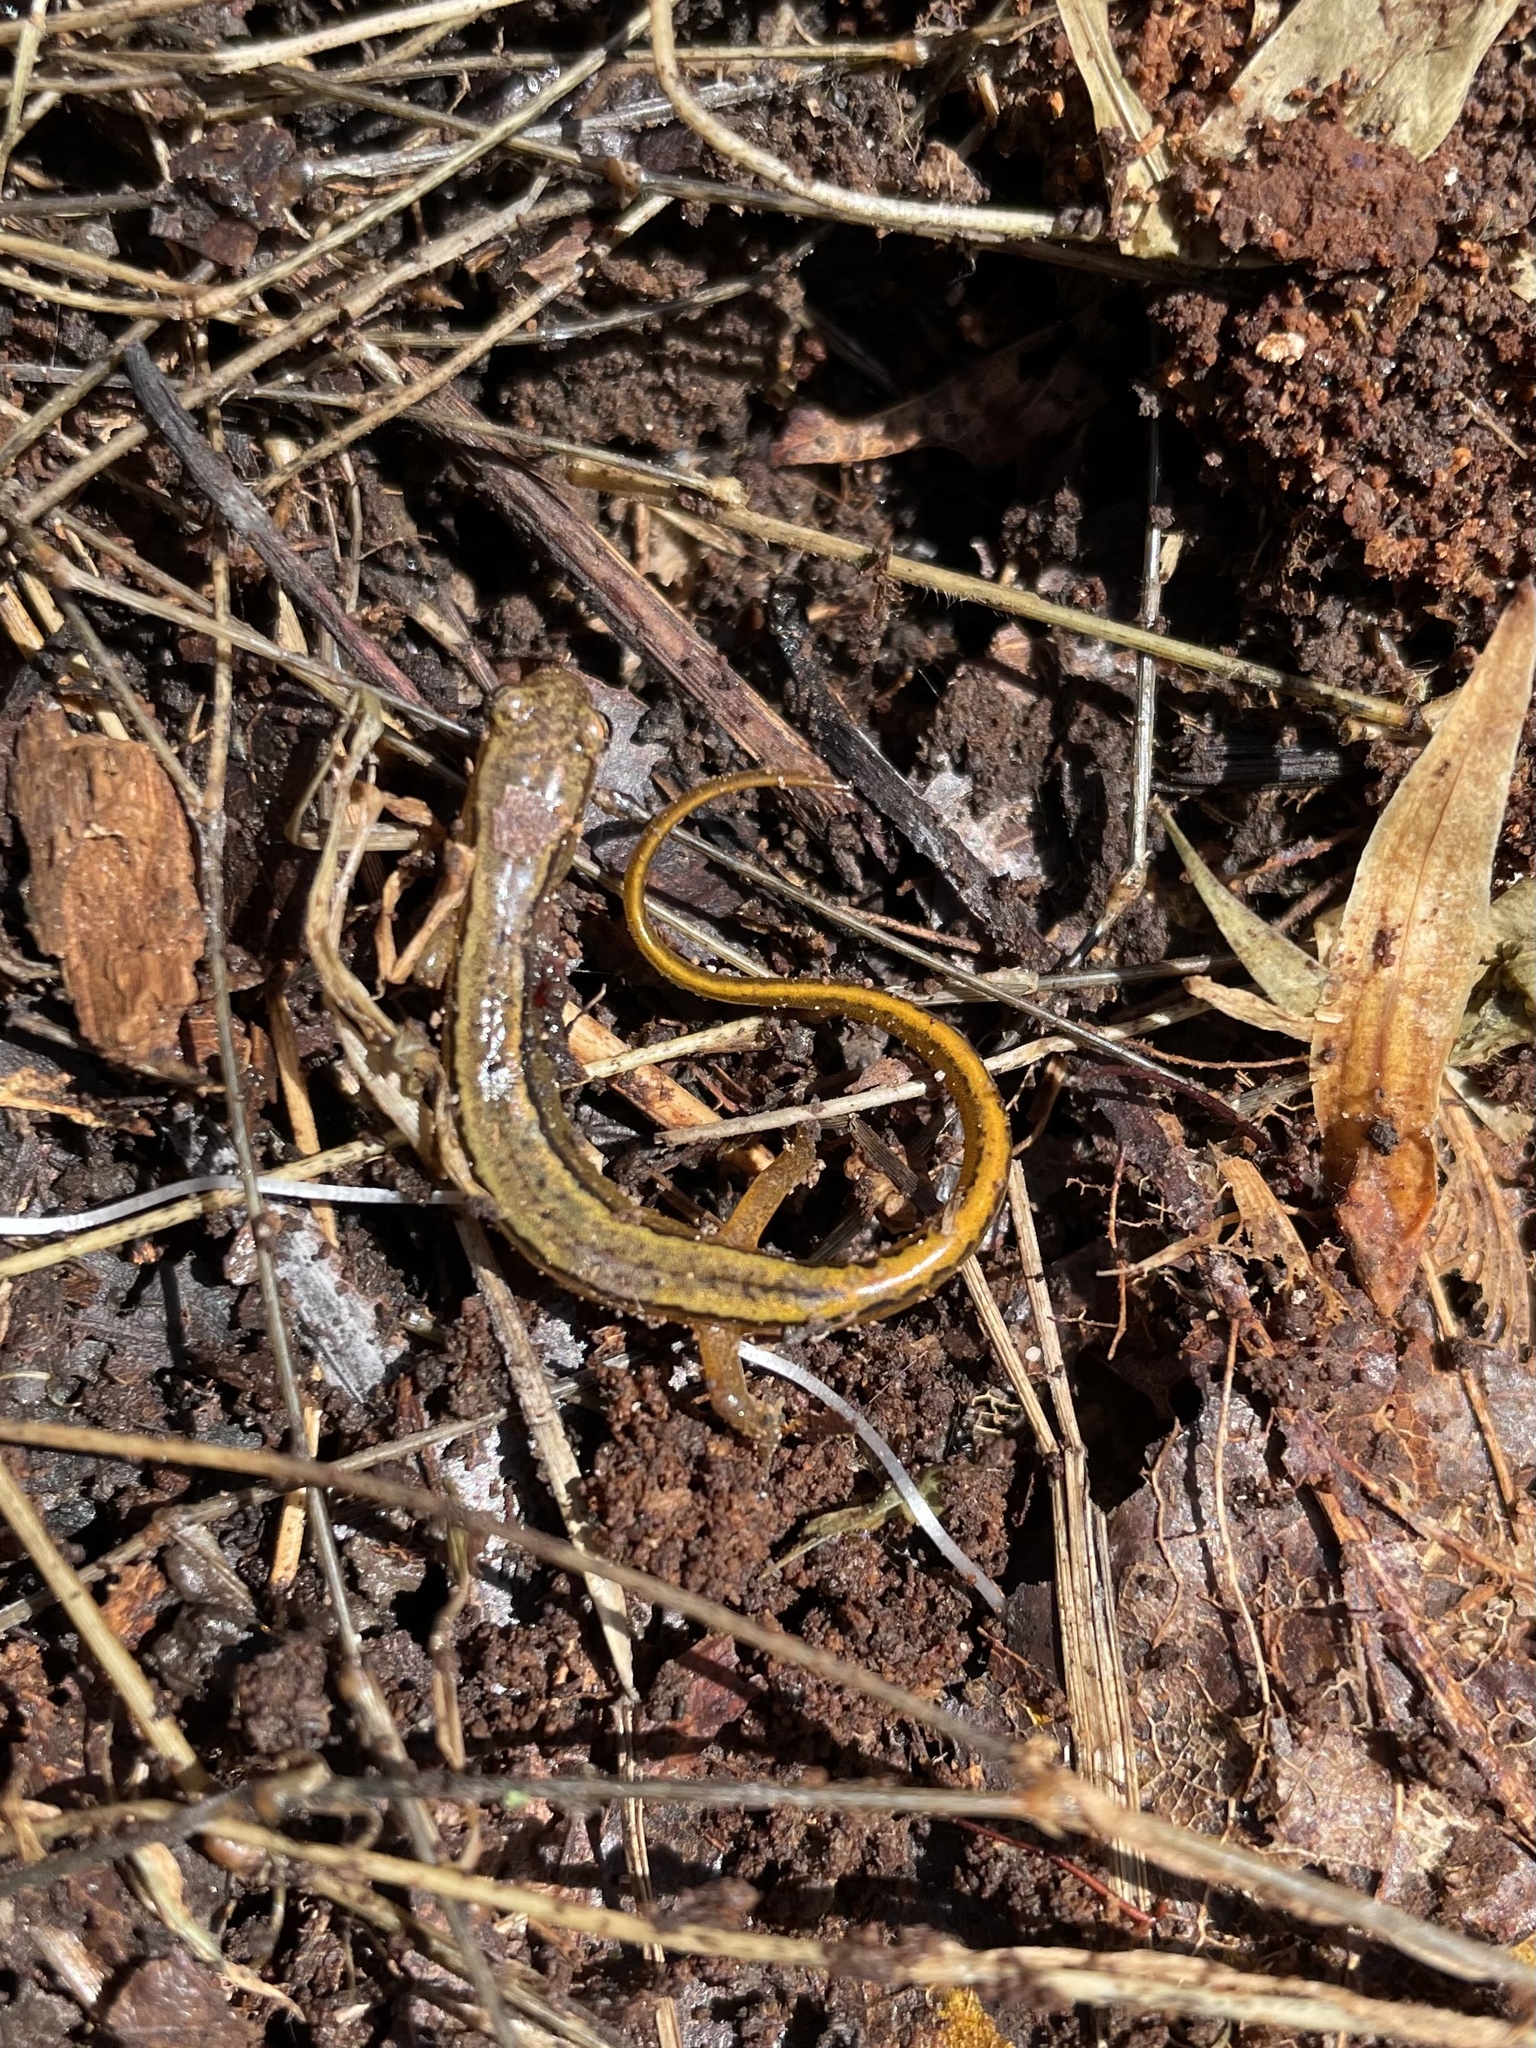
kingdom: Animalia
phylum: Chordata
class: Amphibia
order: Caudata
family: Plethodontidae
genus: Eurycea
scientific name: Eurycea bislineata
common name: Northern two-lined salamander
